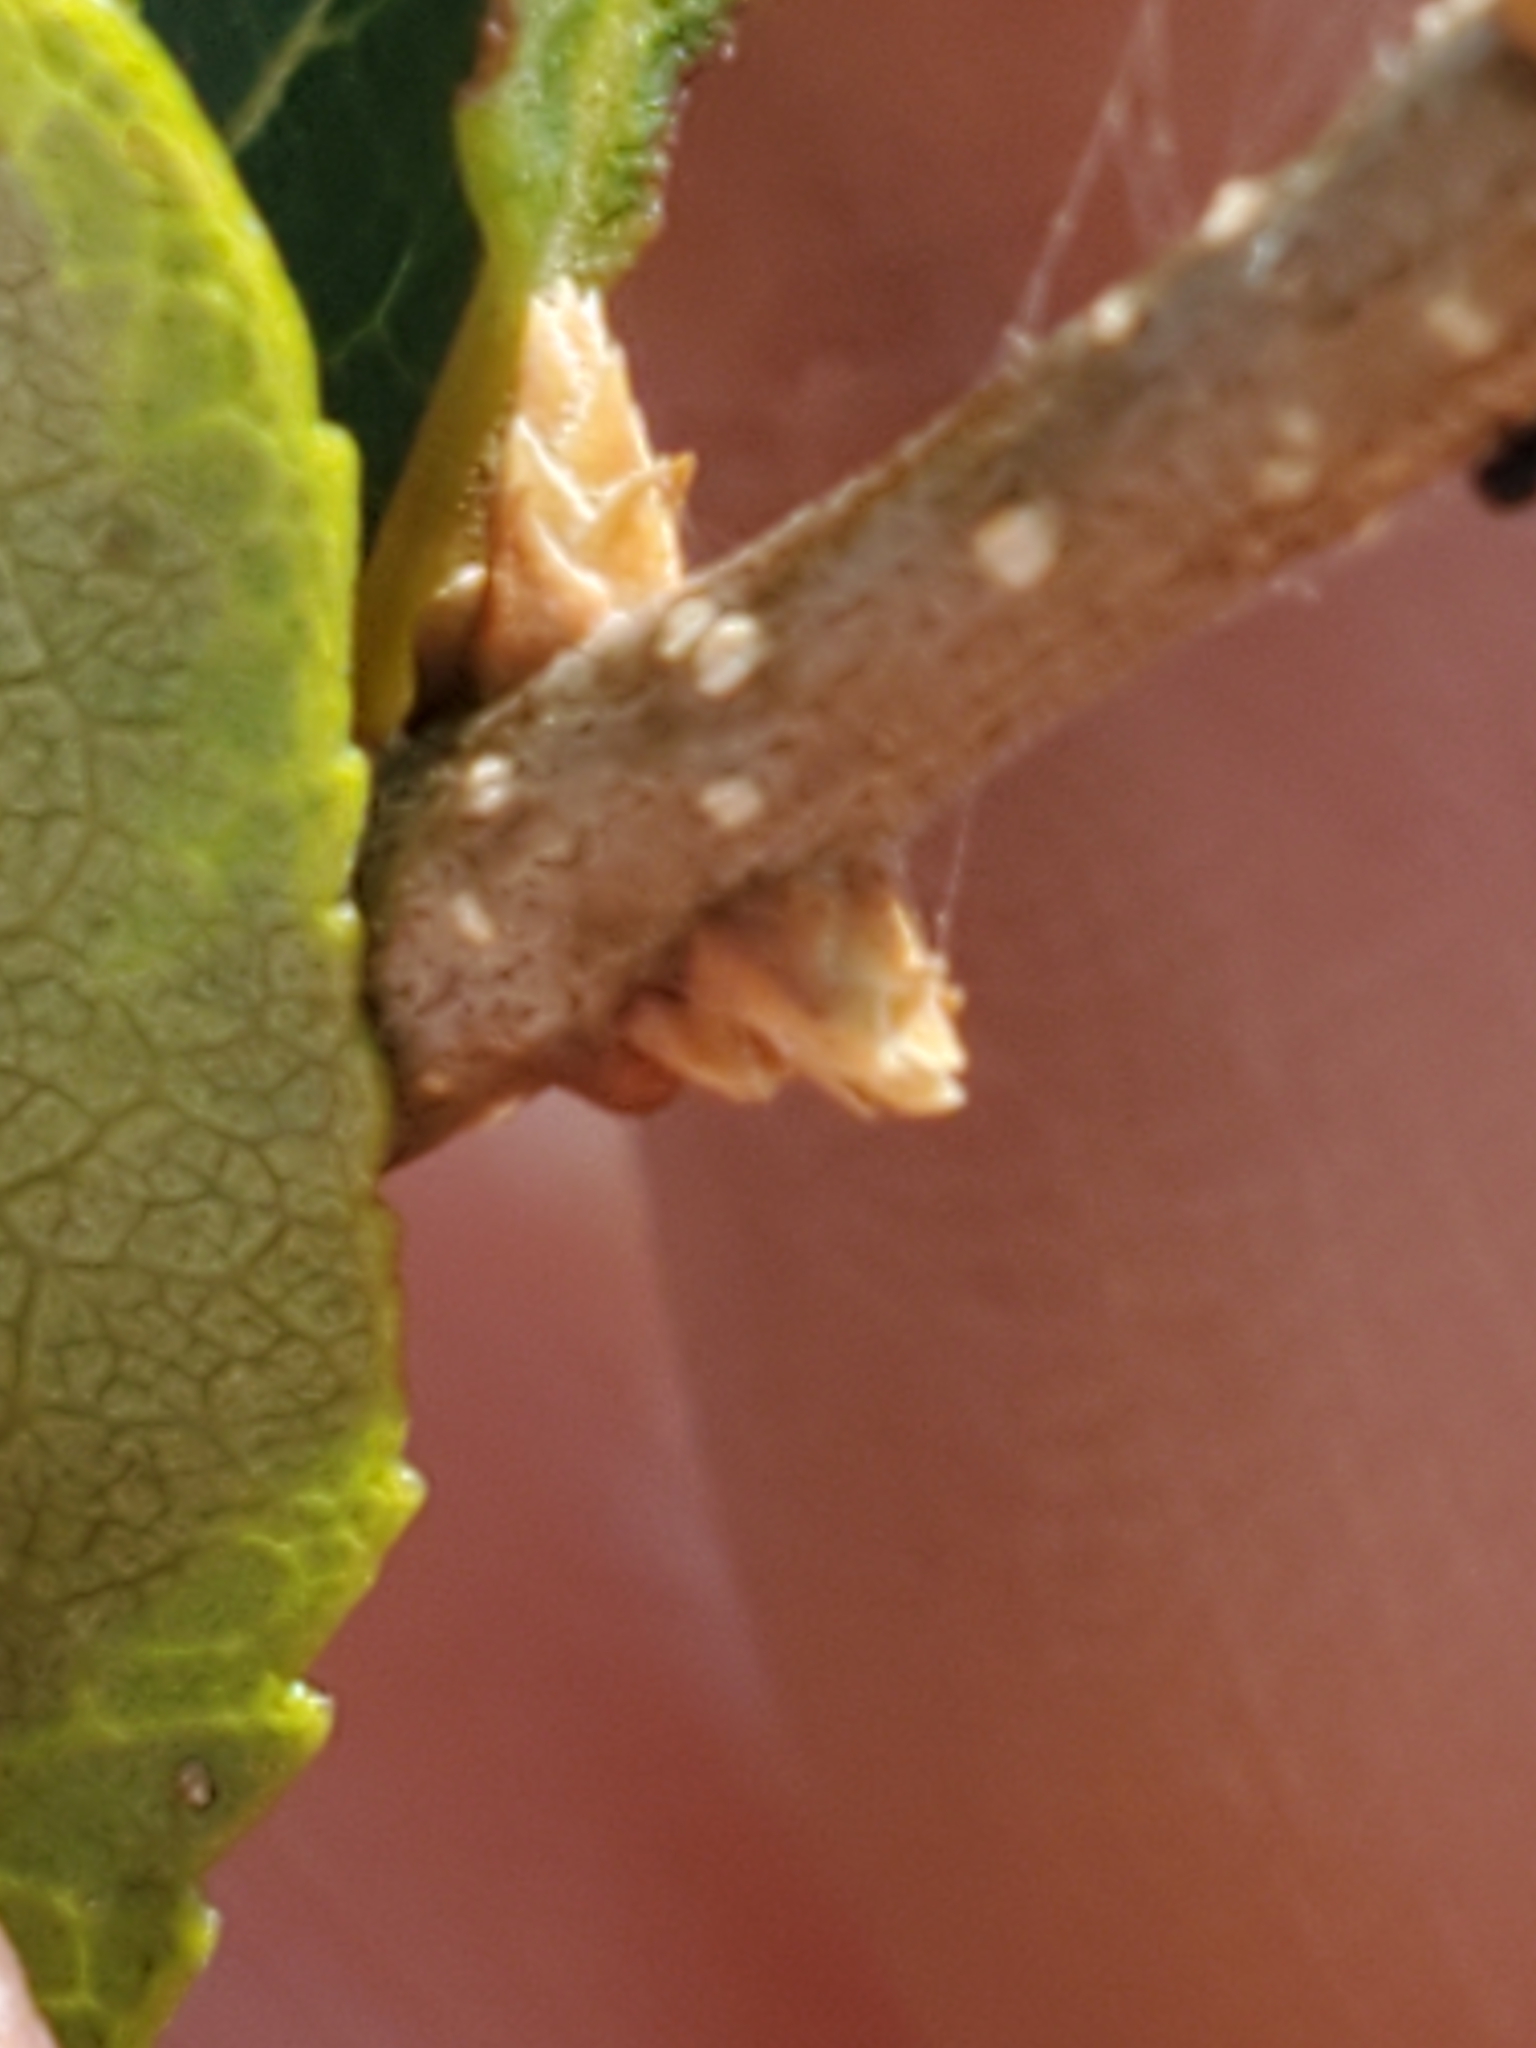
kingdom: Plantae
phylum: Tracheophyta
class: Magnoliopsida
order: Lamiales
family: Oleaceae
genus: Forestiera
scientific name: Forestiera reticulata
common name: Netleaf swamp-privet
